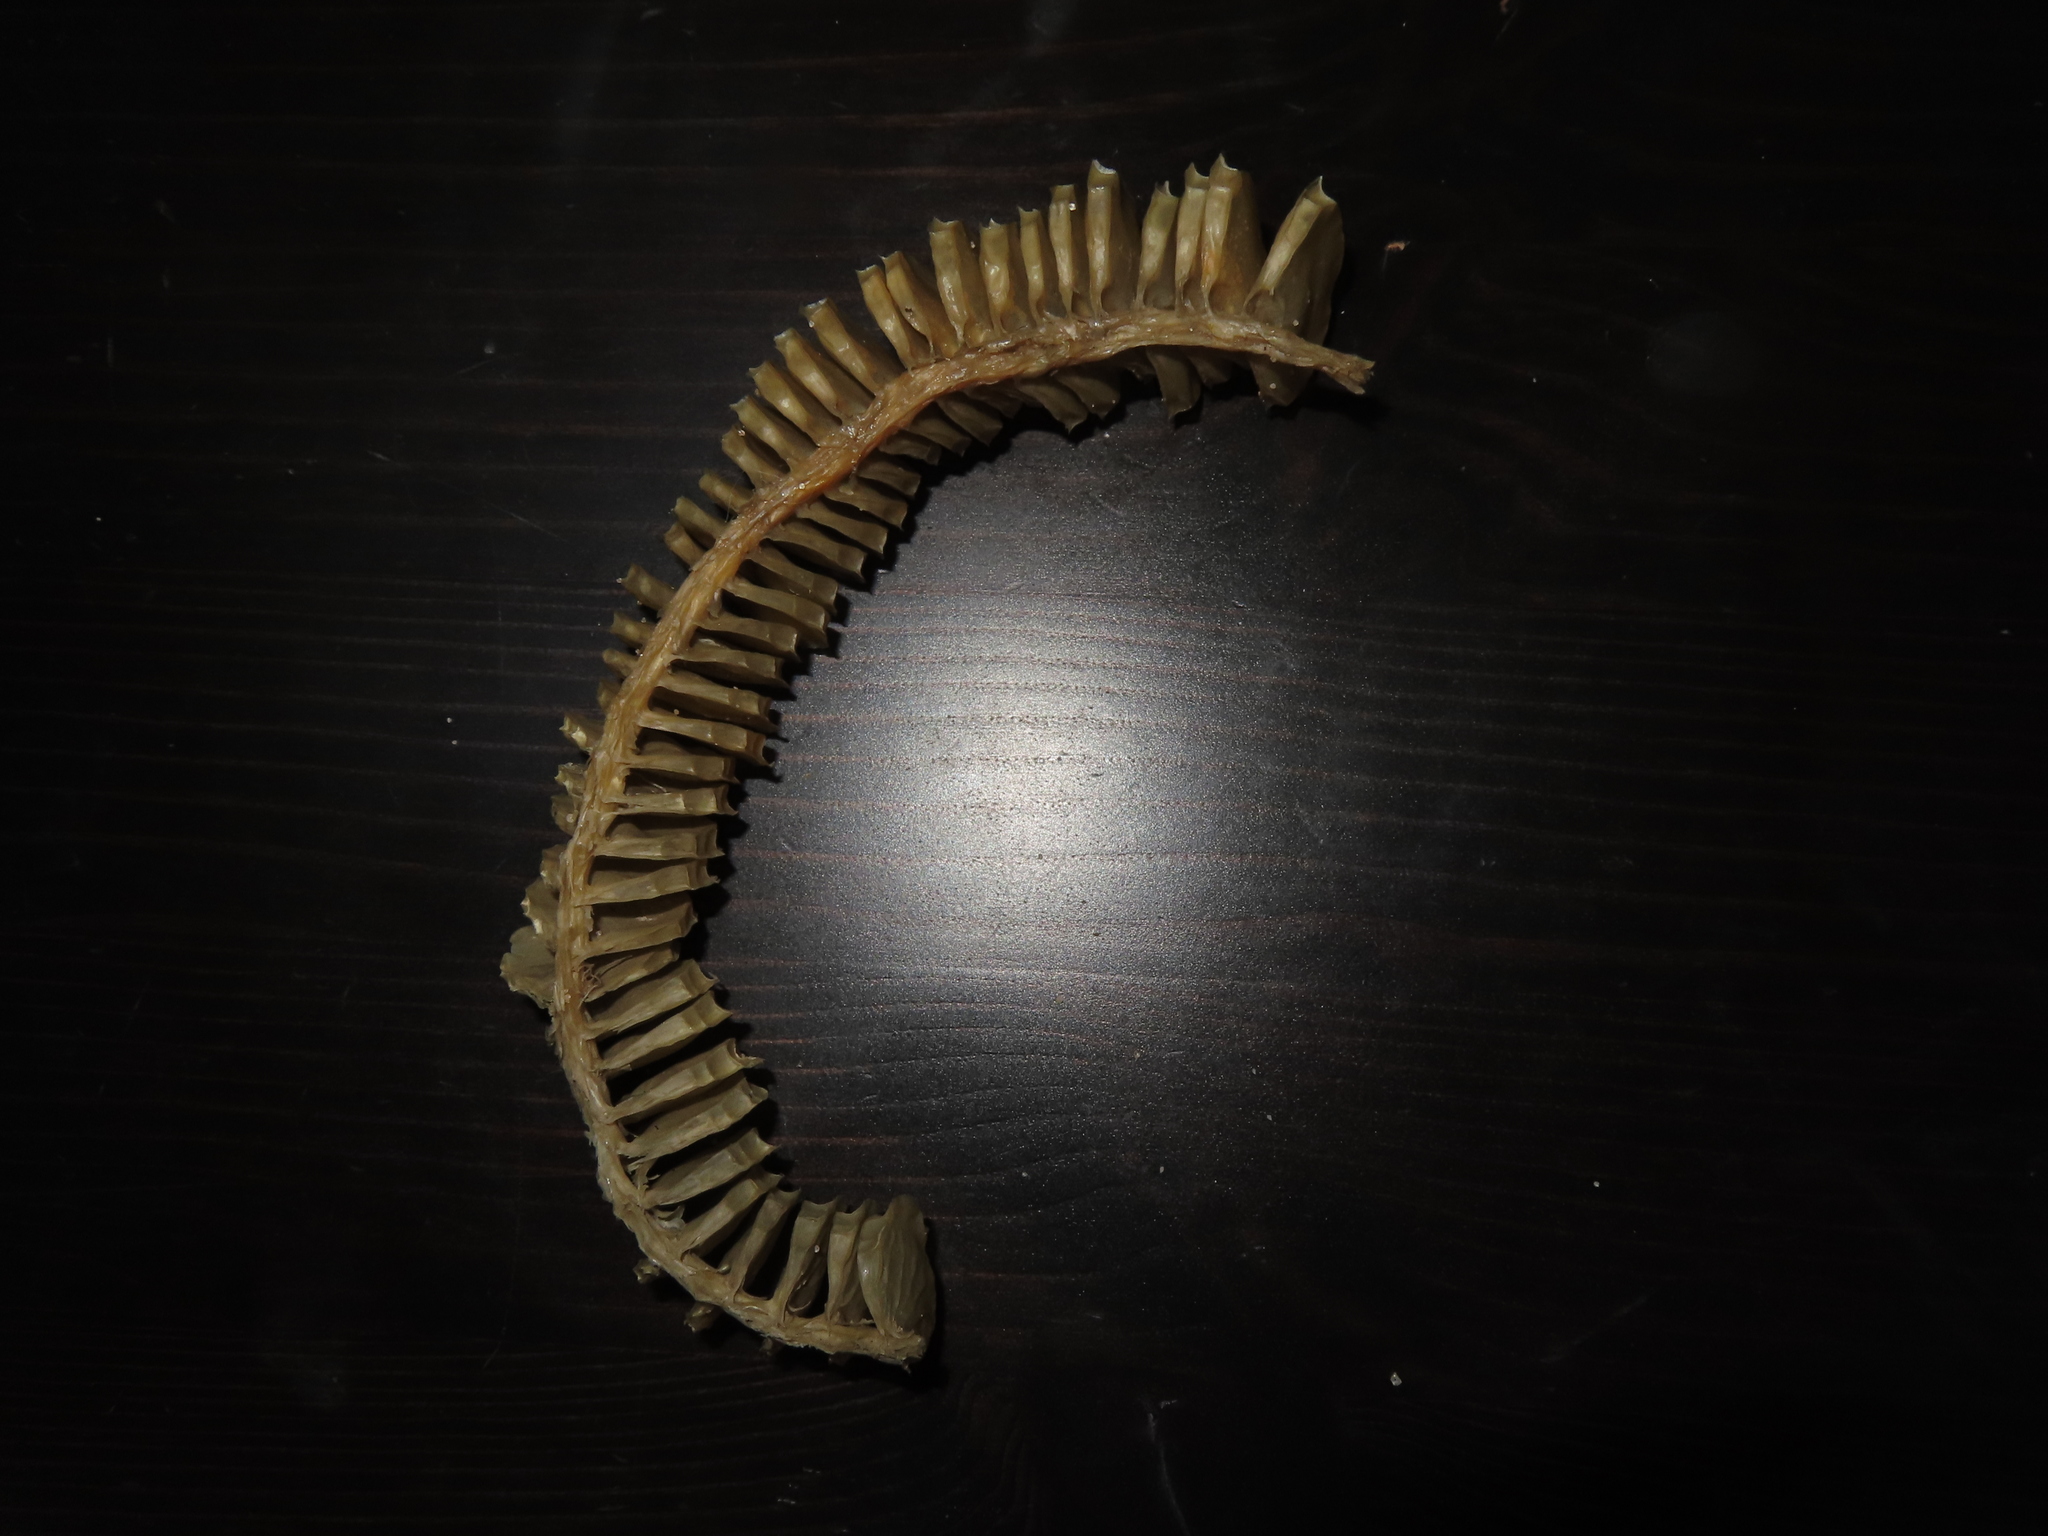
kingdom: Animalia
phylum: Mollusca
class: Gastropoda
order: Neogastropoda
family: Busyconidae
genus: Busycon
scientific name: Busycon carica
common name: Knobbed whelk
